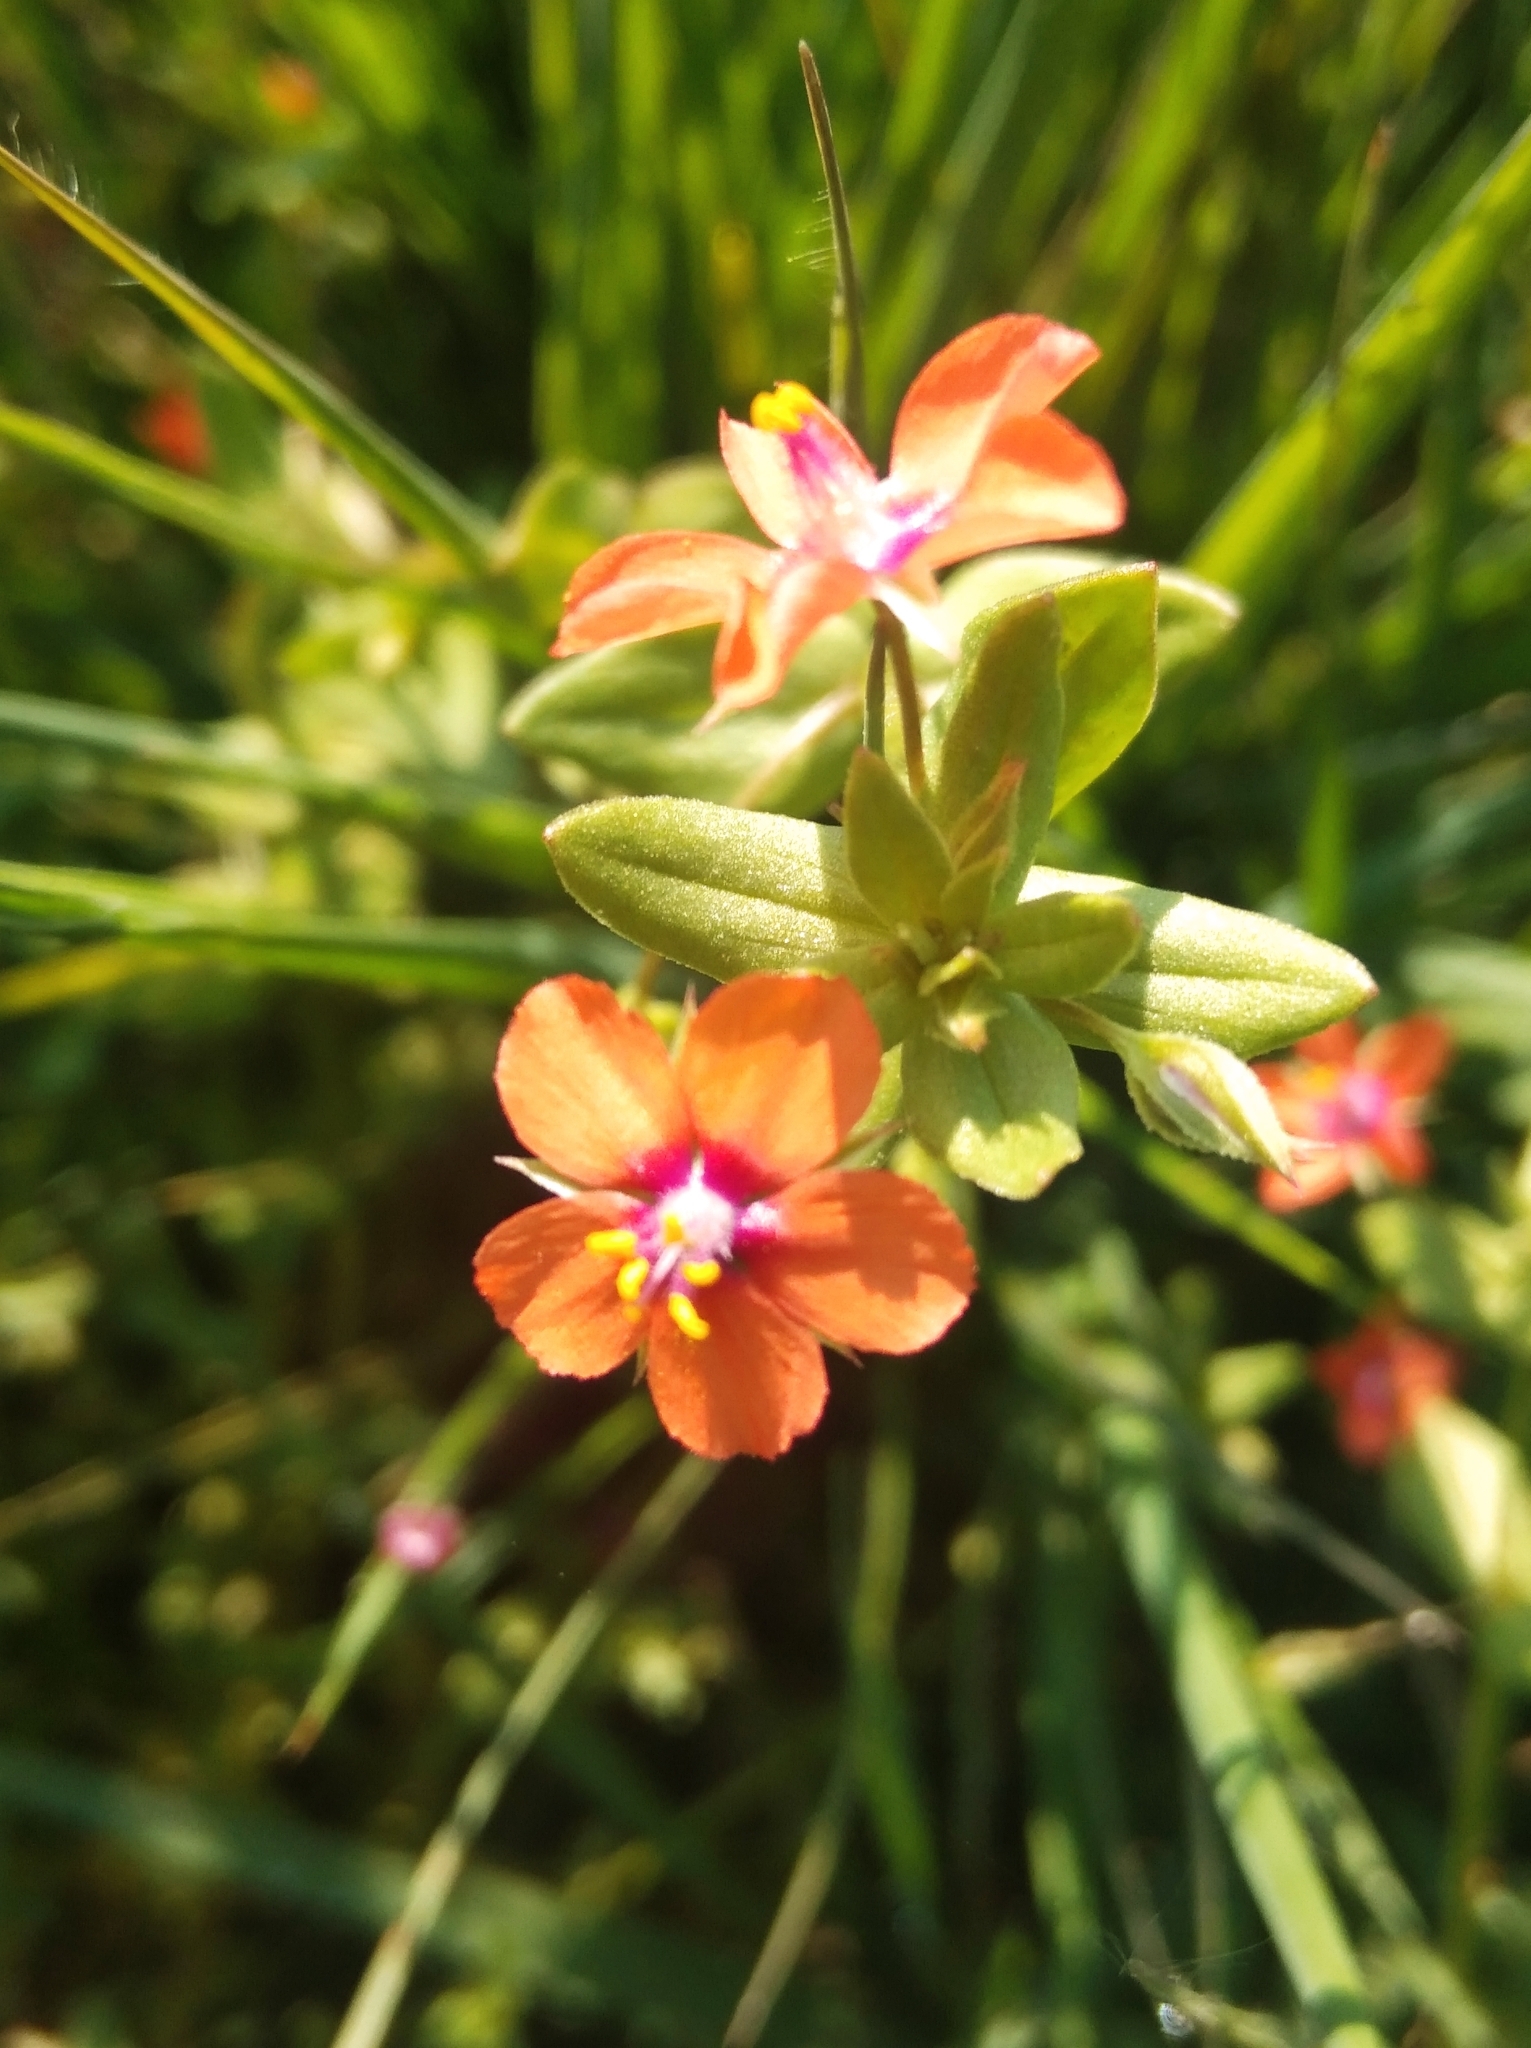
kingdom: Plantae
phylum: Tracheophyta
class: Magnoliopsida
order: Ericales
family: Primulaceae
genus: Lysimachia
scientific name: Lysimachia arvensis
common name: Scarlet pimpernel
